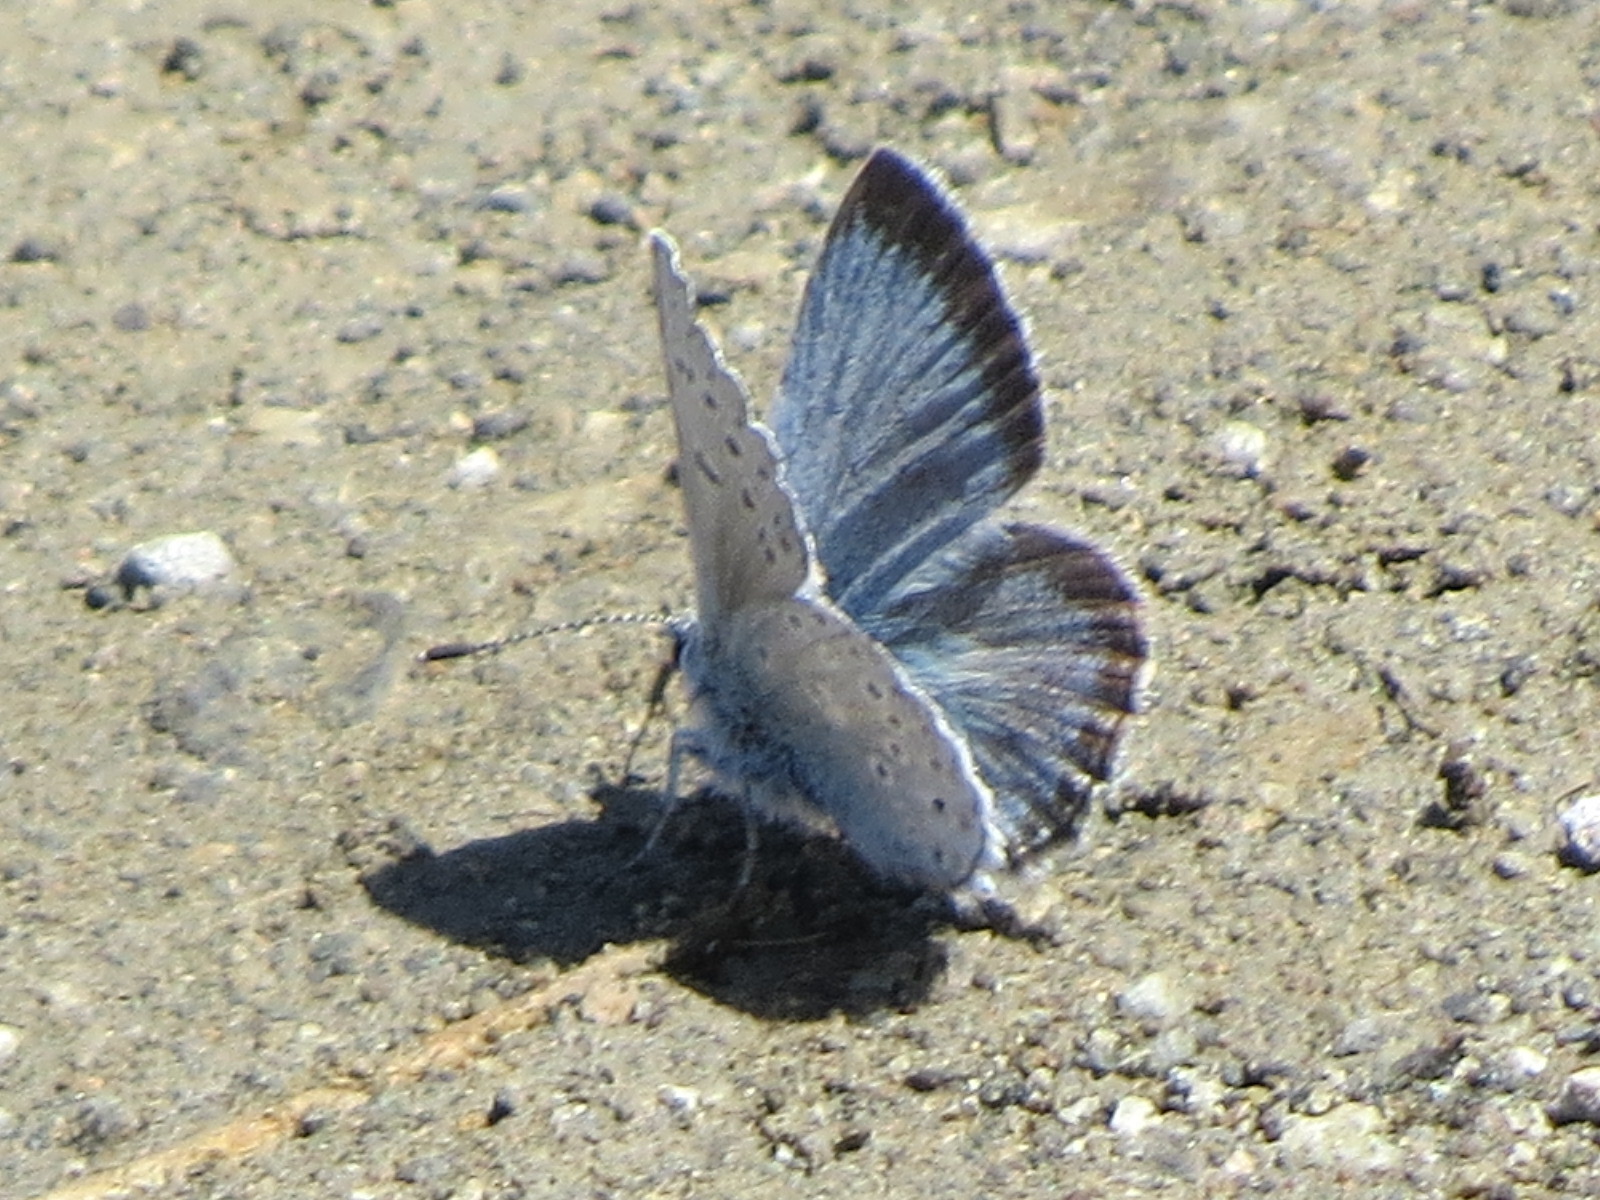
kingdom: Animalia
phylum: Arthropoda
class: Insecta
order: Lepidoptera
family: Lycaenidae
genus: Icaricia
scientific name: Icaricia icarioides
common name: Boisduval's blue
